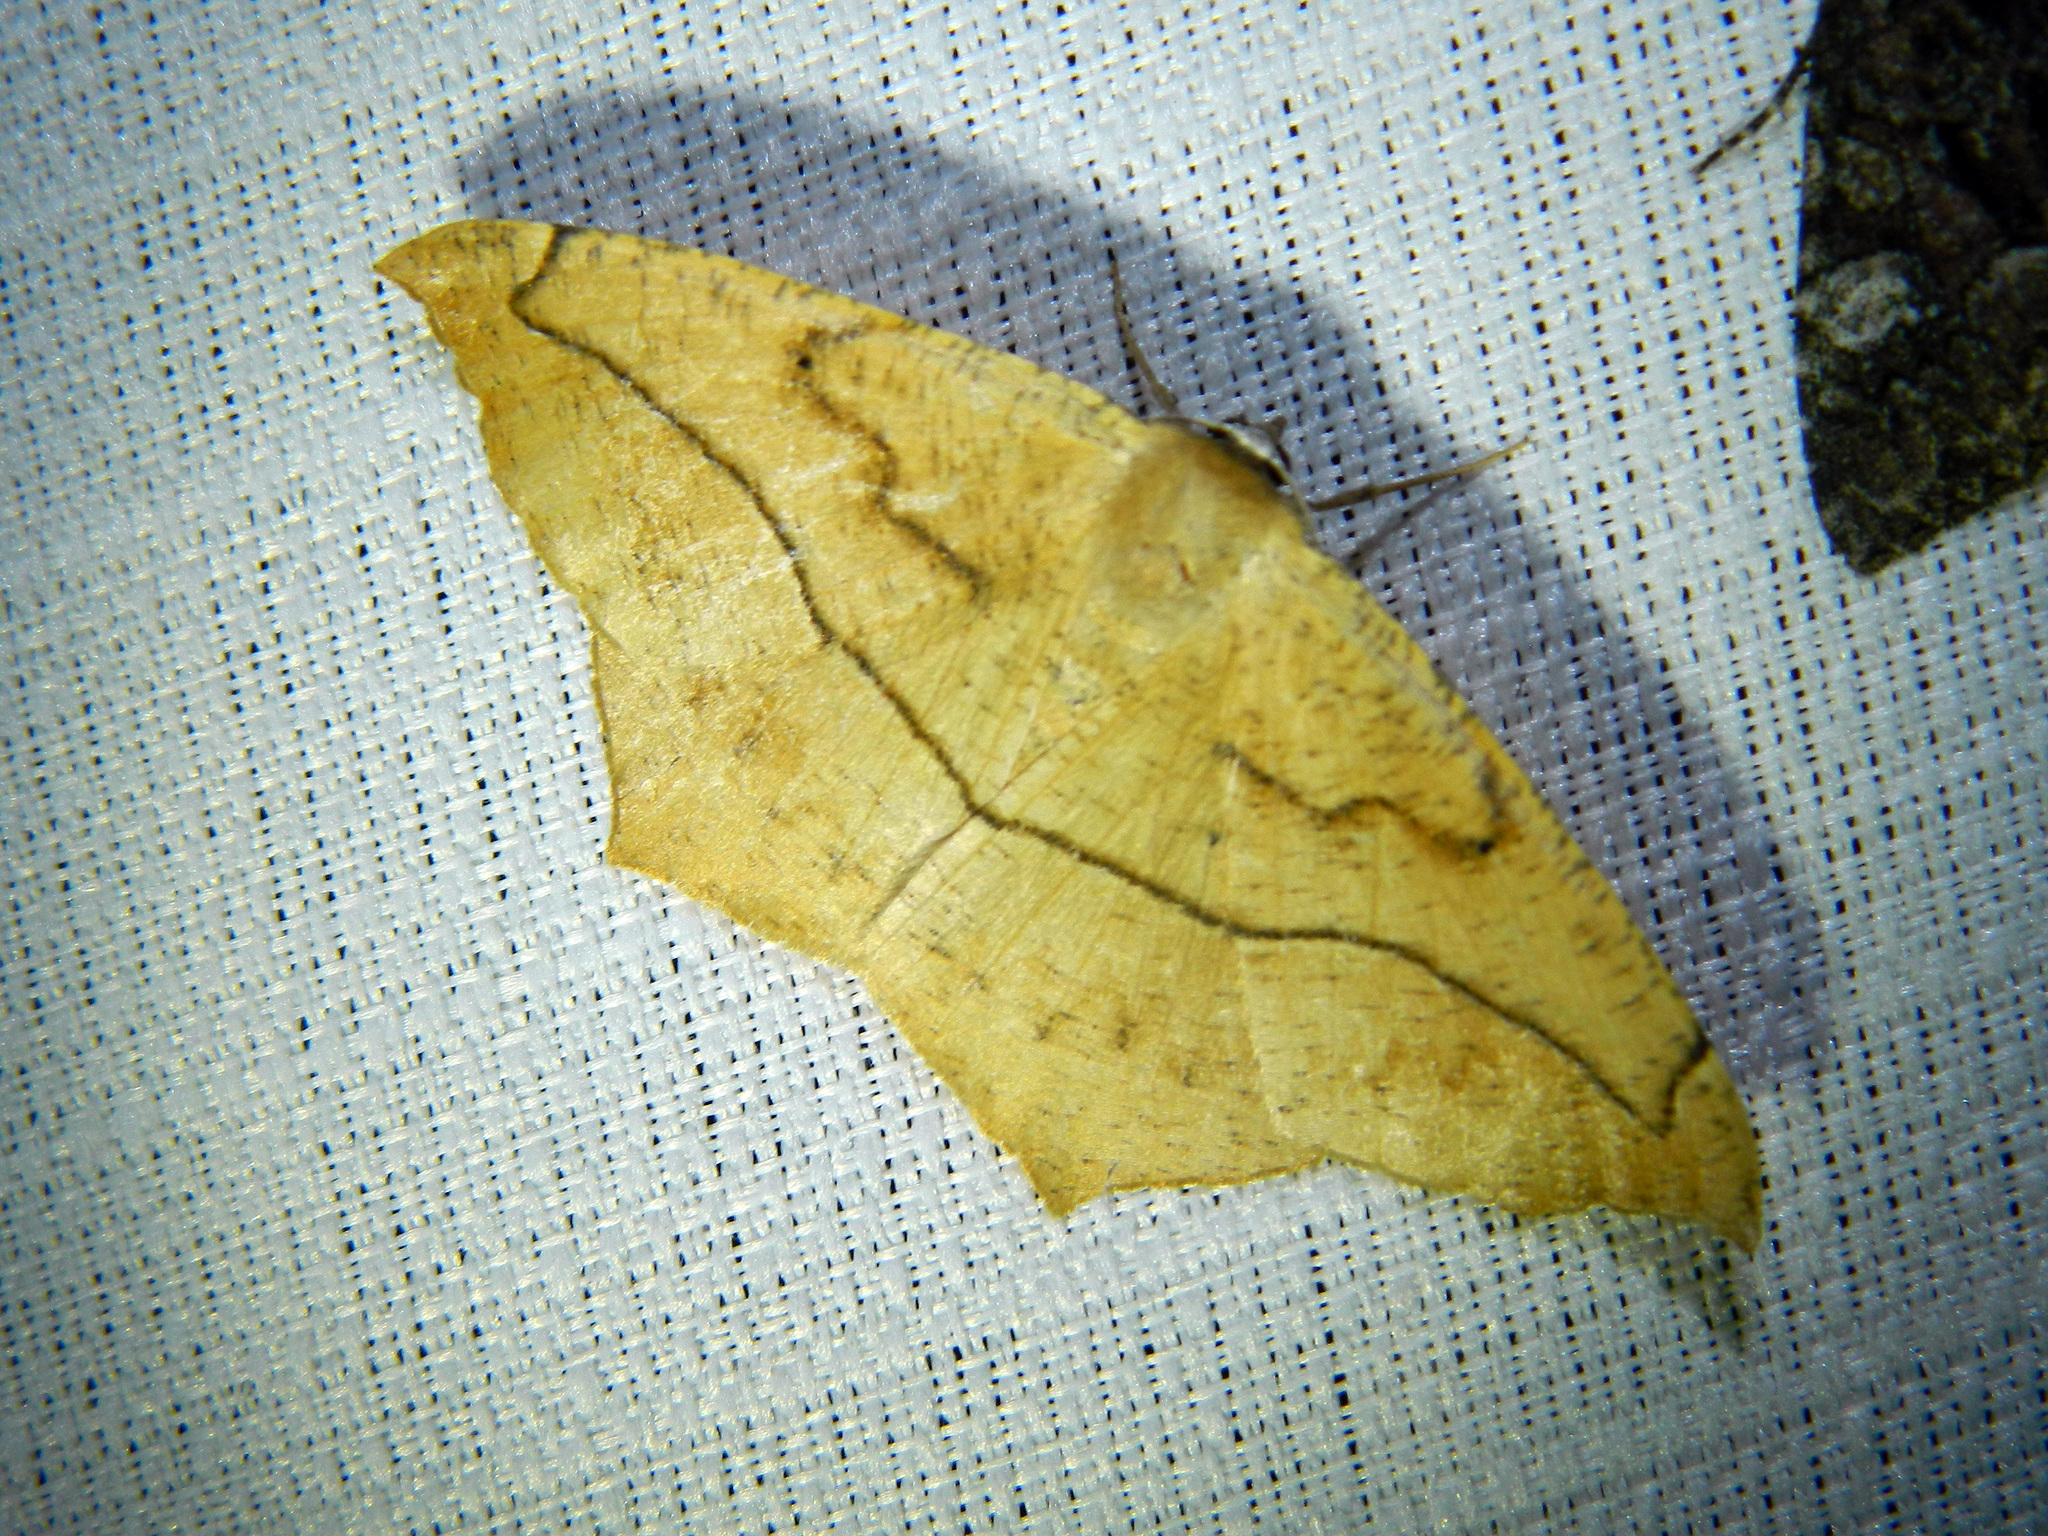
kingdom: Animalia
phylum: Arthropoda
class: Insecta
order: Lepidoptera
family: Geometridae
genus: Prochoerodes
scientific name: Prochoerodes lineola
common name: Large maple spanworm
